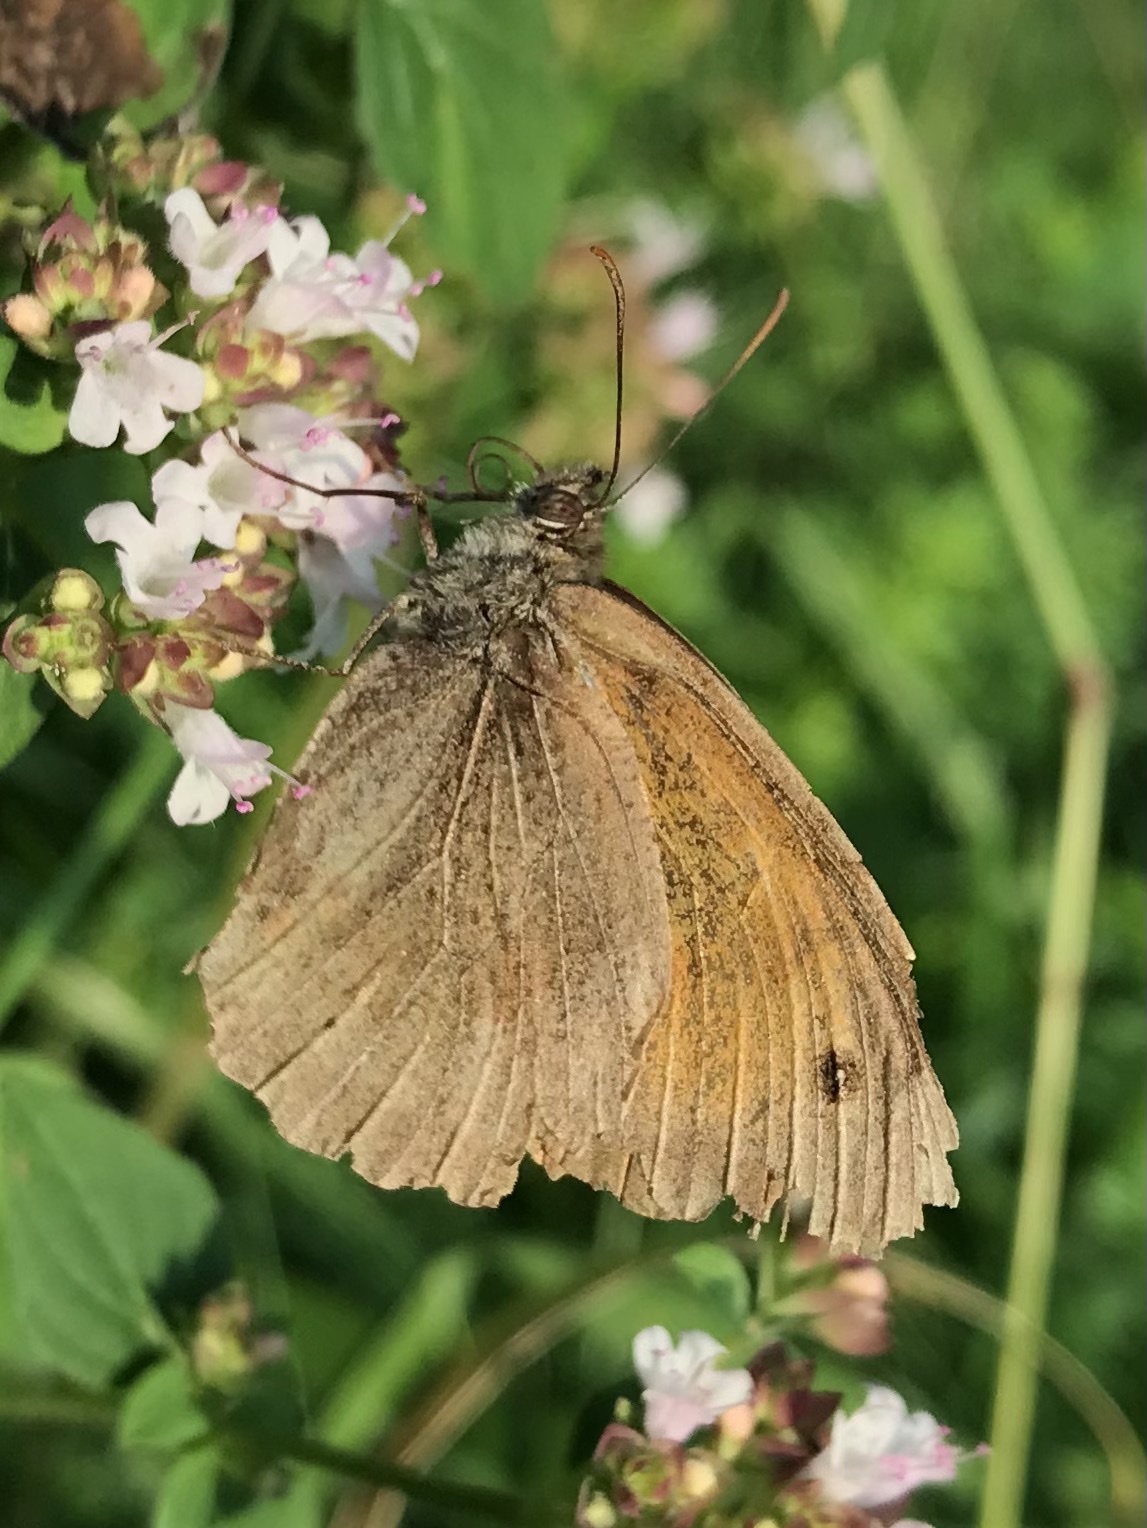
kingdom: Animalia
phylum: Arthropoda
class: Insecta
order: Lepidoptera
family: Nymphalidae
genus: Maniola
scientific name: Maniola jurtina
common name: Meadow brown
